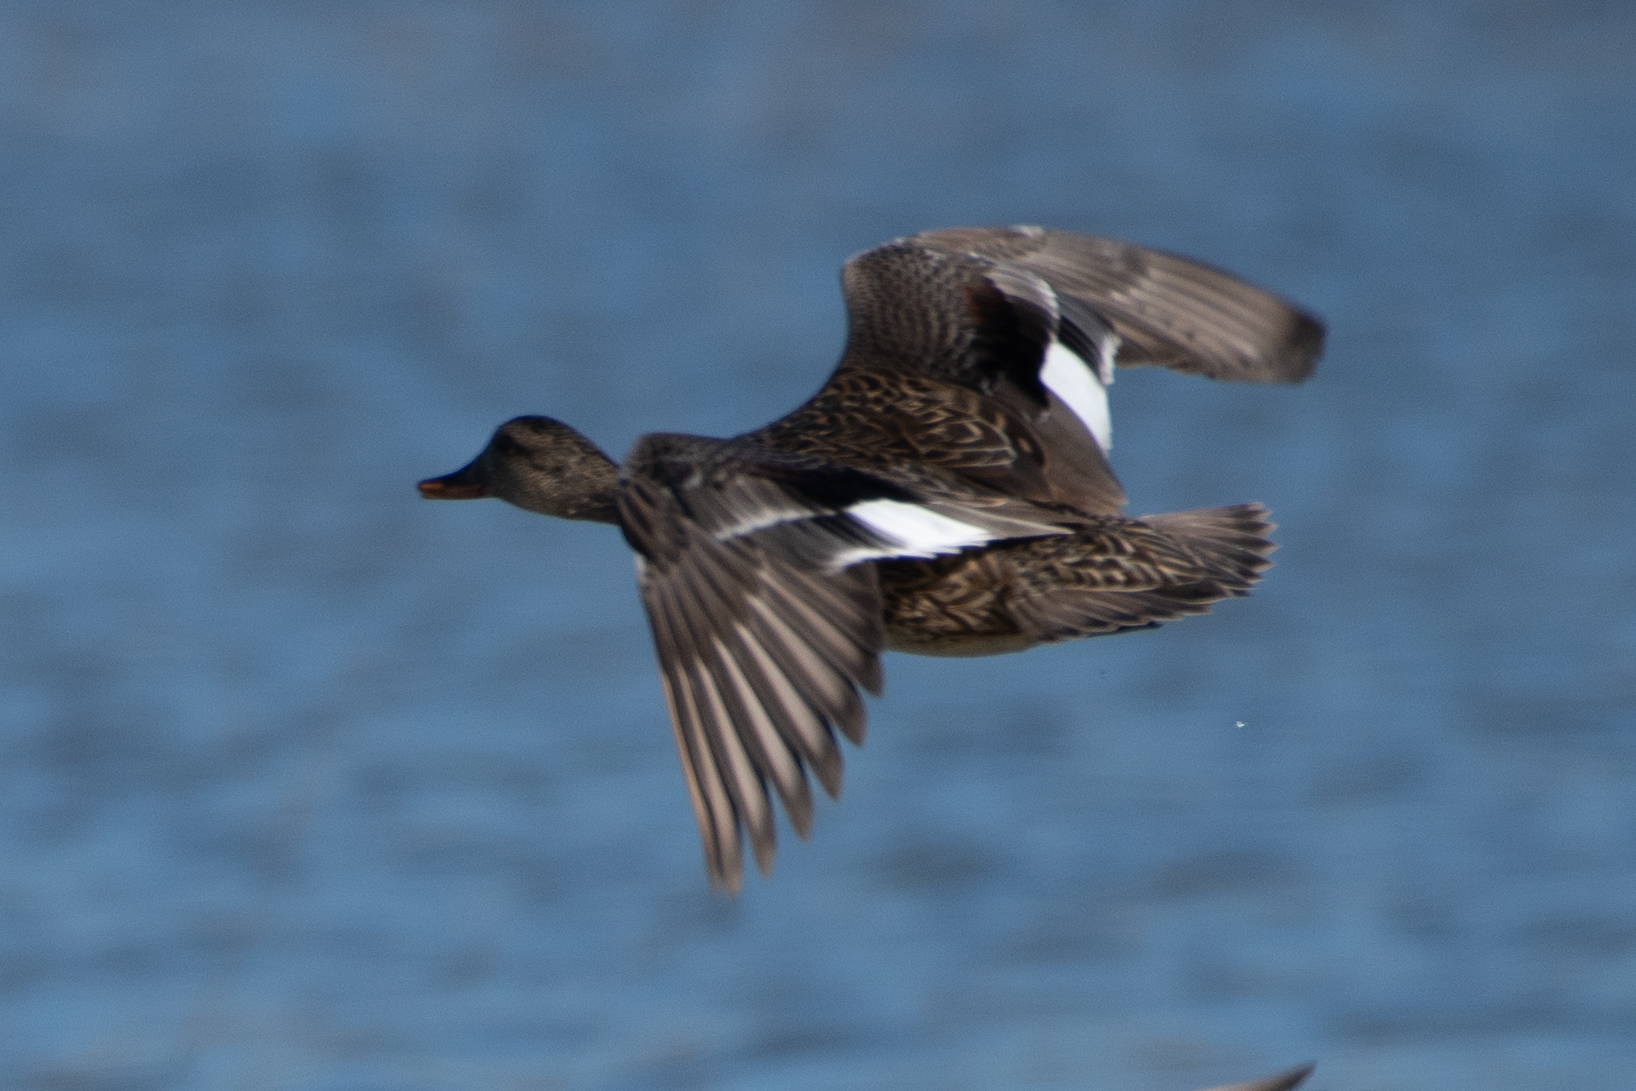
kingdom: Animalia
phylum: Chordata
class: Aves
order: Anseriformes
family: Anatidae
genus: Mareca
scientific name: Mareca strepera
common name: Gadwall
